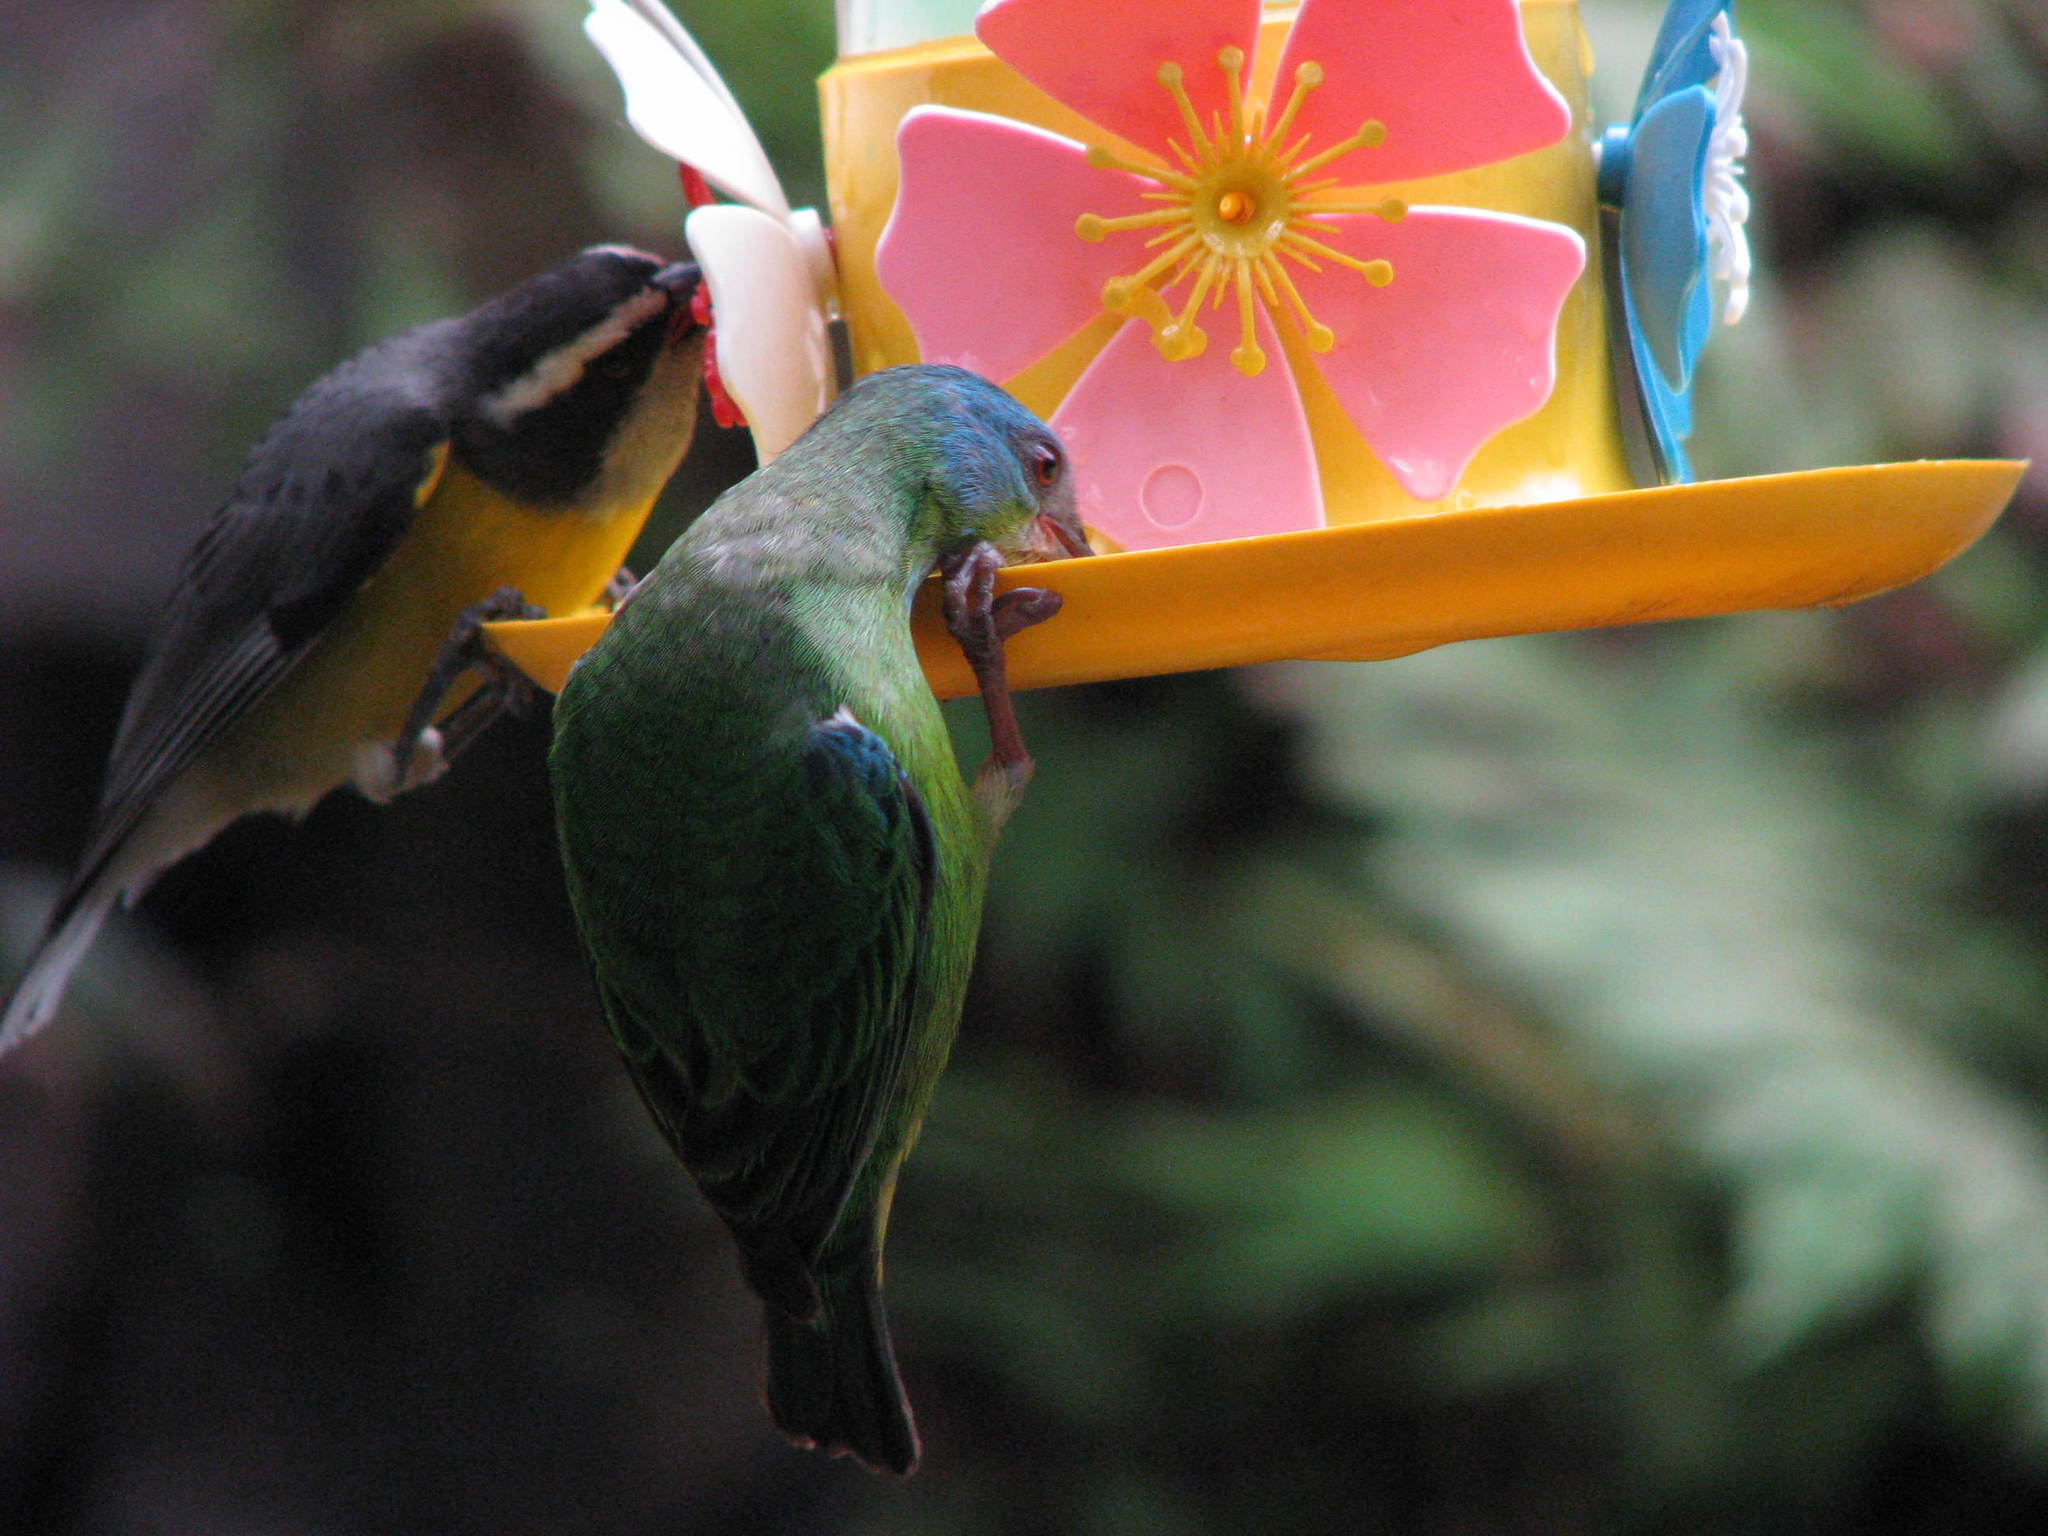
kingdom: Animalia
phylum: Chordata
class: Aves
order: Passeriformes
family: Thraupidae
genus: Dacnis
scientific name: Dacnis cayana
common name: Blue dacnis
